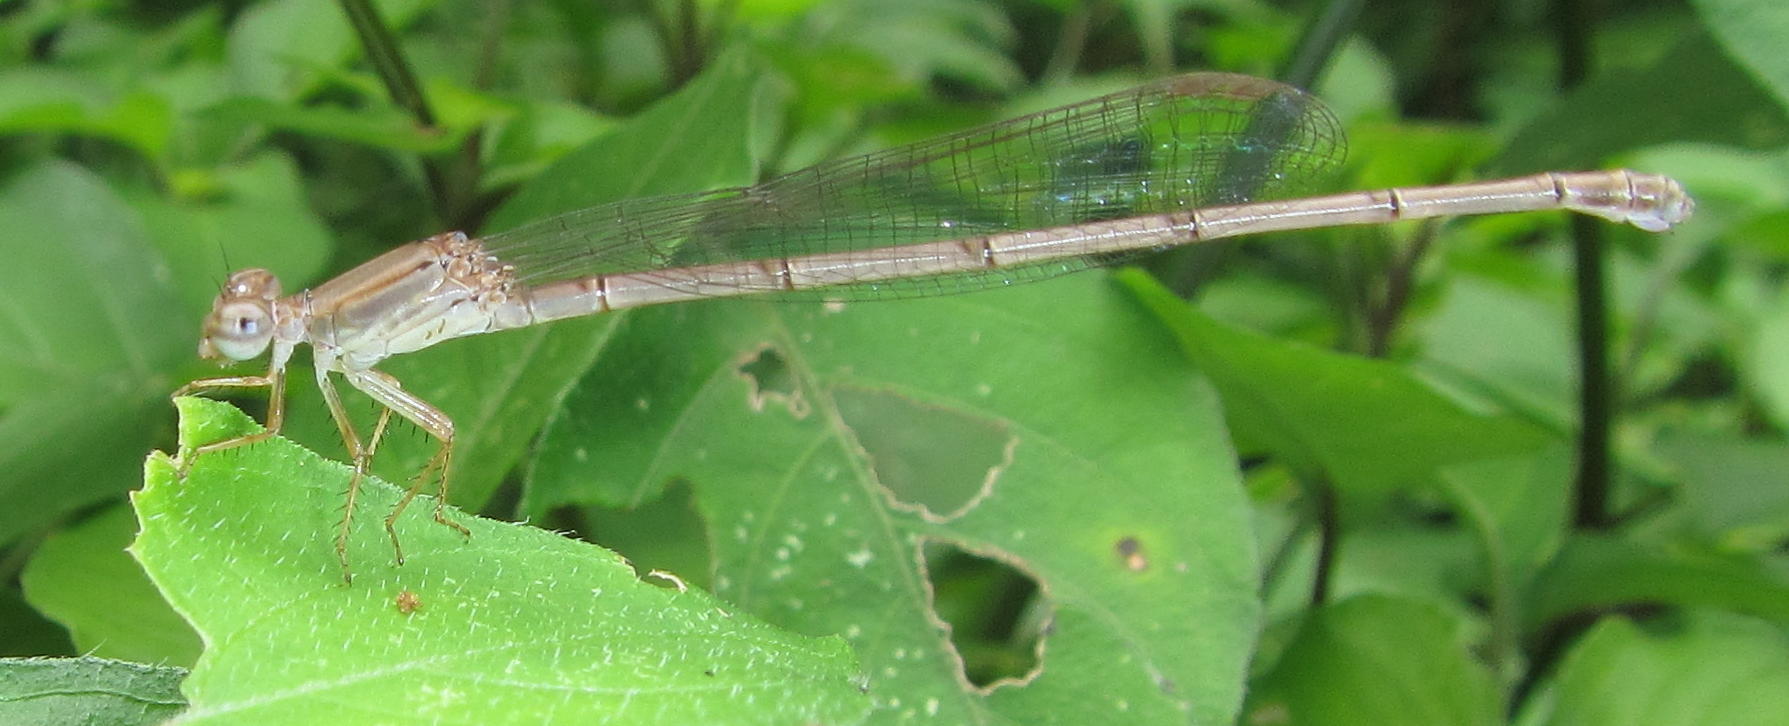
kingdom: Animalia
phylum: Arthropoda
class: Insecta
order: Odonata
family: Coenagrionidae
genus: Ceriagrion
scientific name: Ceriagrion glabrum
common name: Common pond damsel
